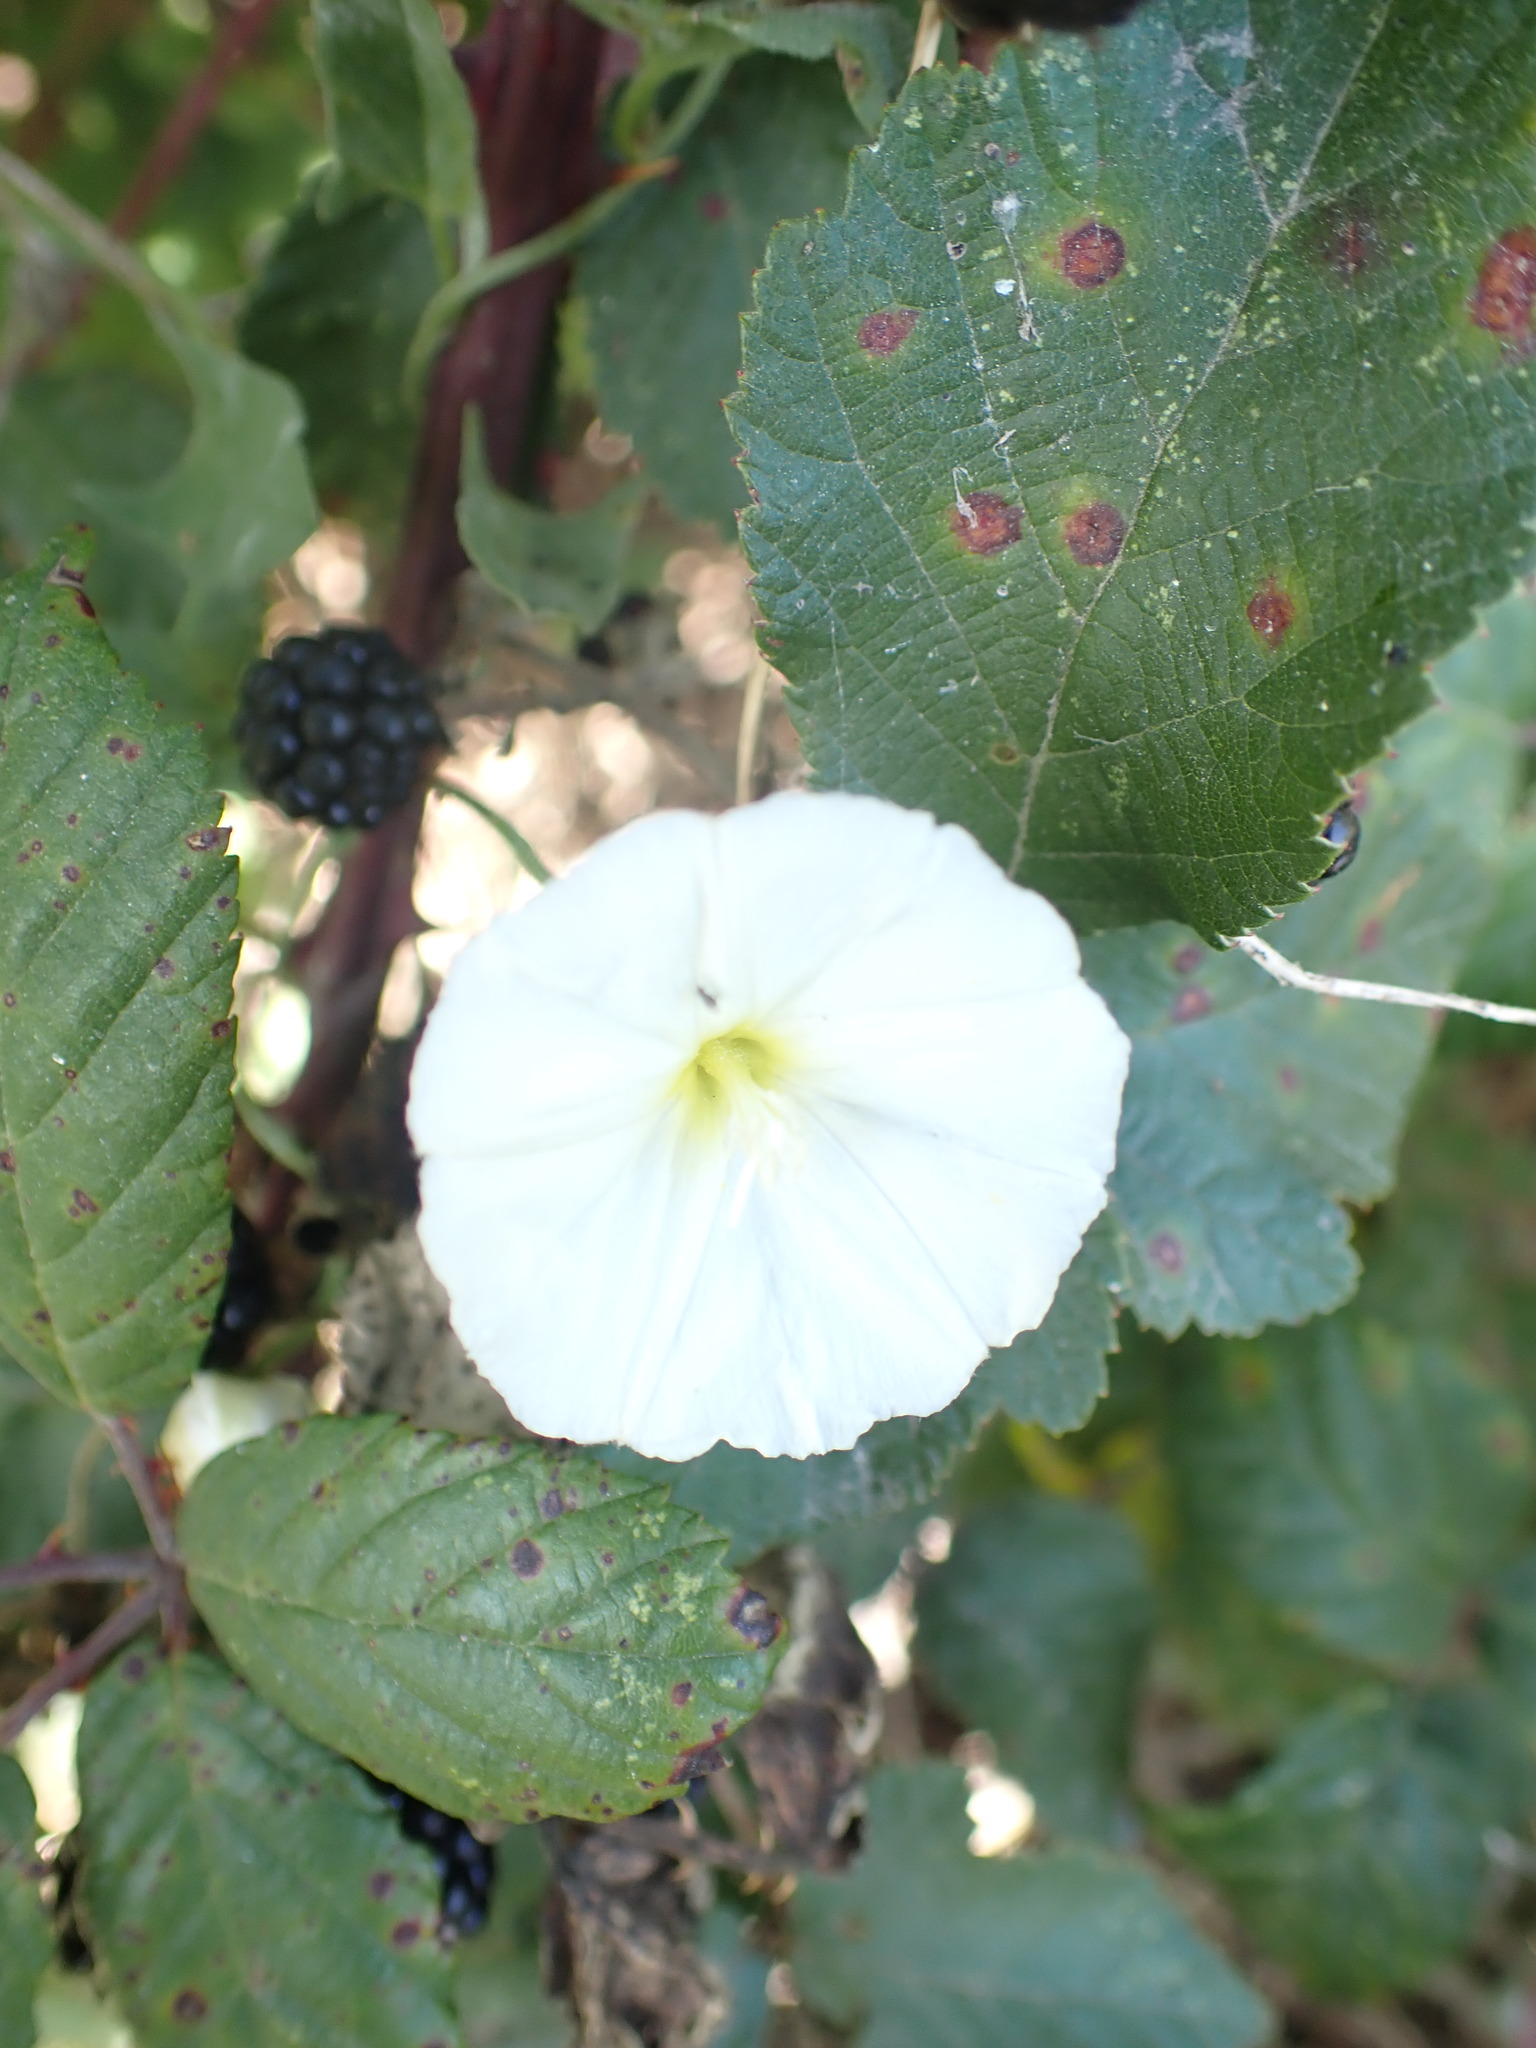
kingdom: Plantae
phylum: Tracheophyta
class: Magnoliopsida
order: Solanales
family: Convolvulaceae
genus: Convolvulus
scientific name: Convolvulus arvensis
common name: Field bindweed
